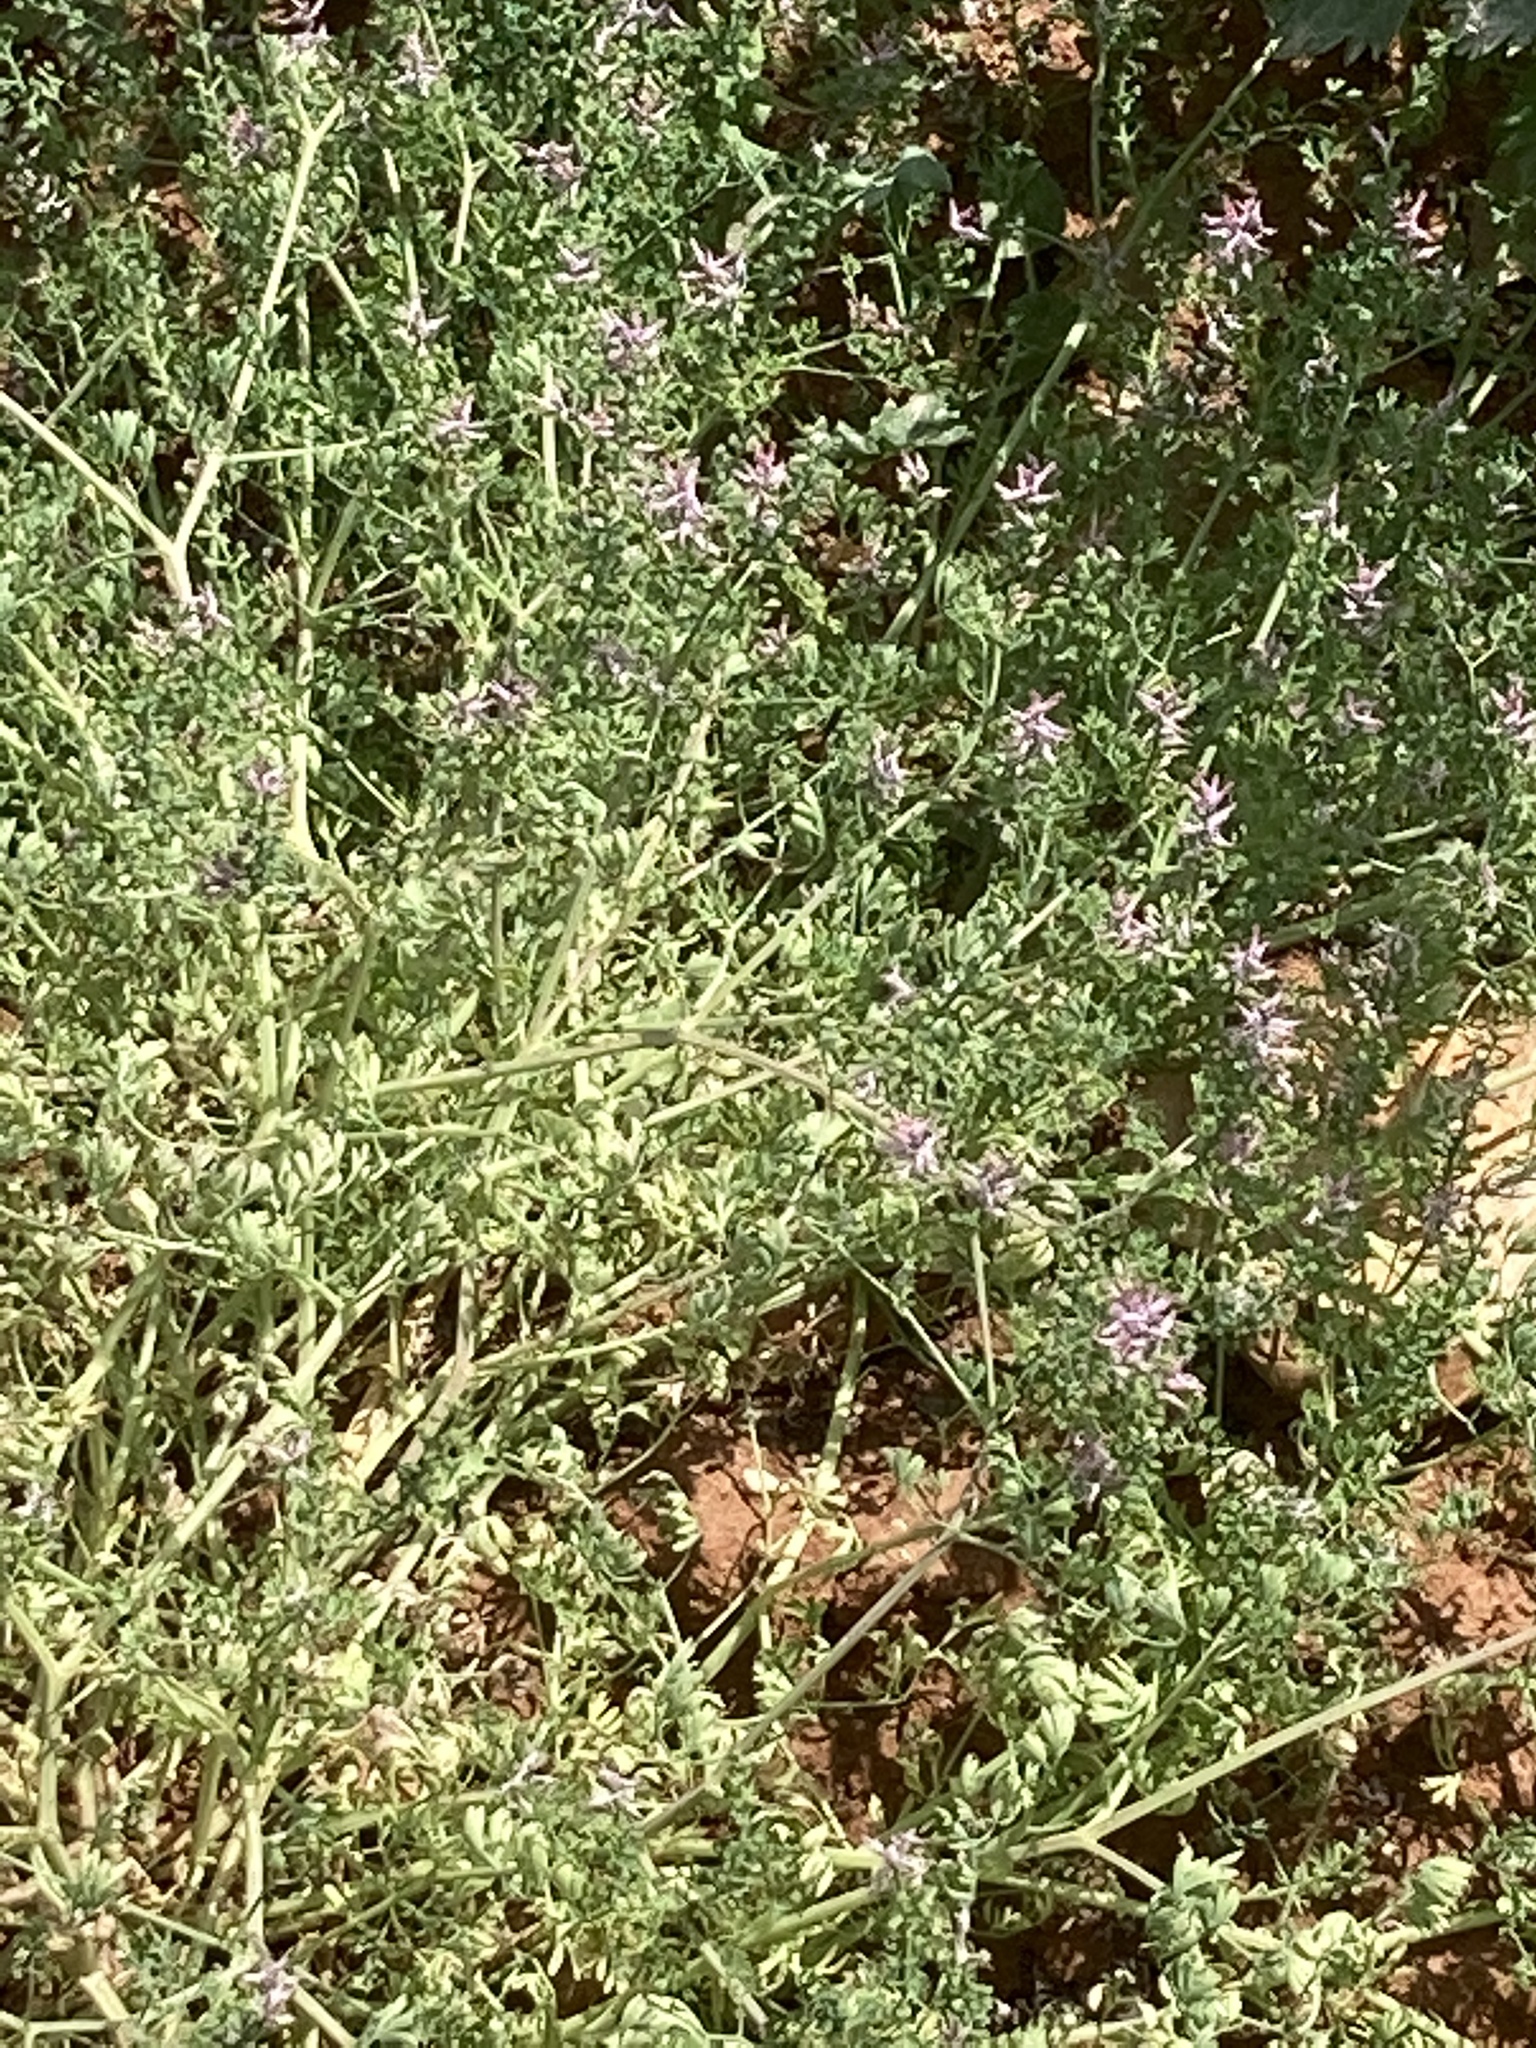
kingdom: Plantae
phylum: Tracheophyta
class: Magnoliopsida
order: Ranunculales
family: Papaveraceae
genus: Fumaria
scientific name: Fumaria
